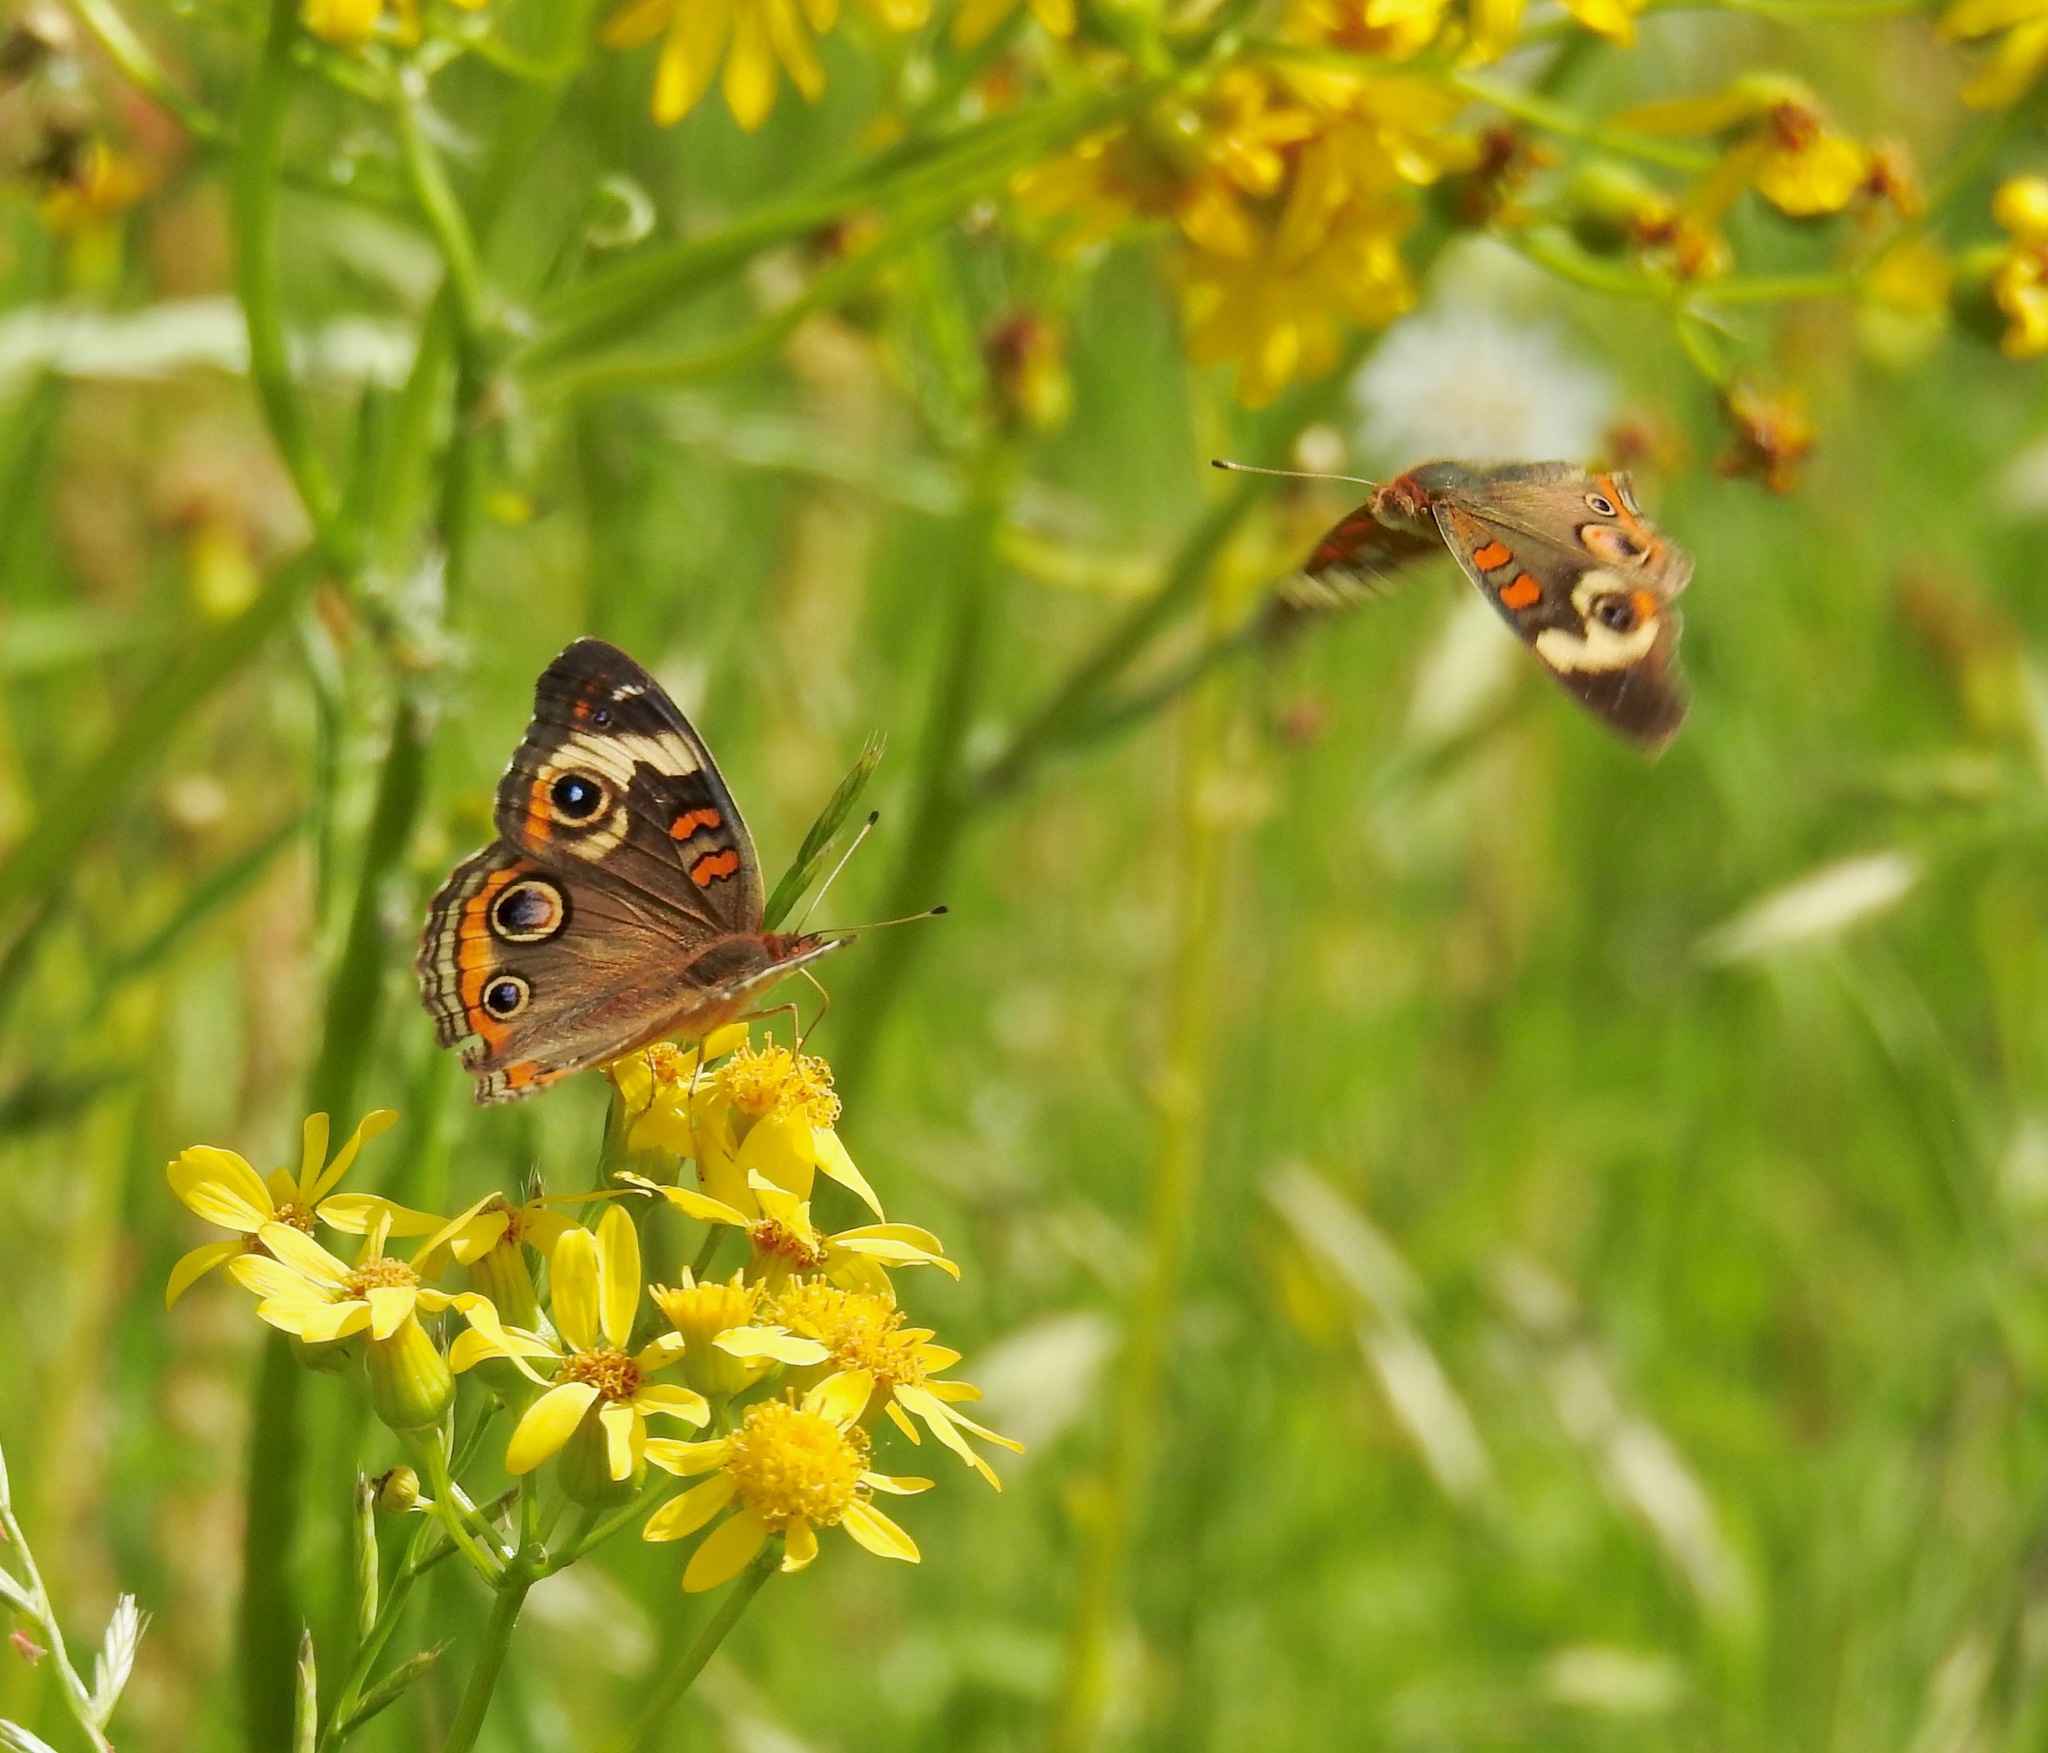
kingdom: Animalia
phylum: Arthropoda
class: Insecta
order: Lepidoptera
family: Nymphalidae
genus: Junonia
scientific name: Junonia coenia
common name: Common buckeye
